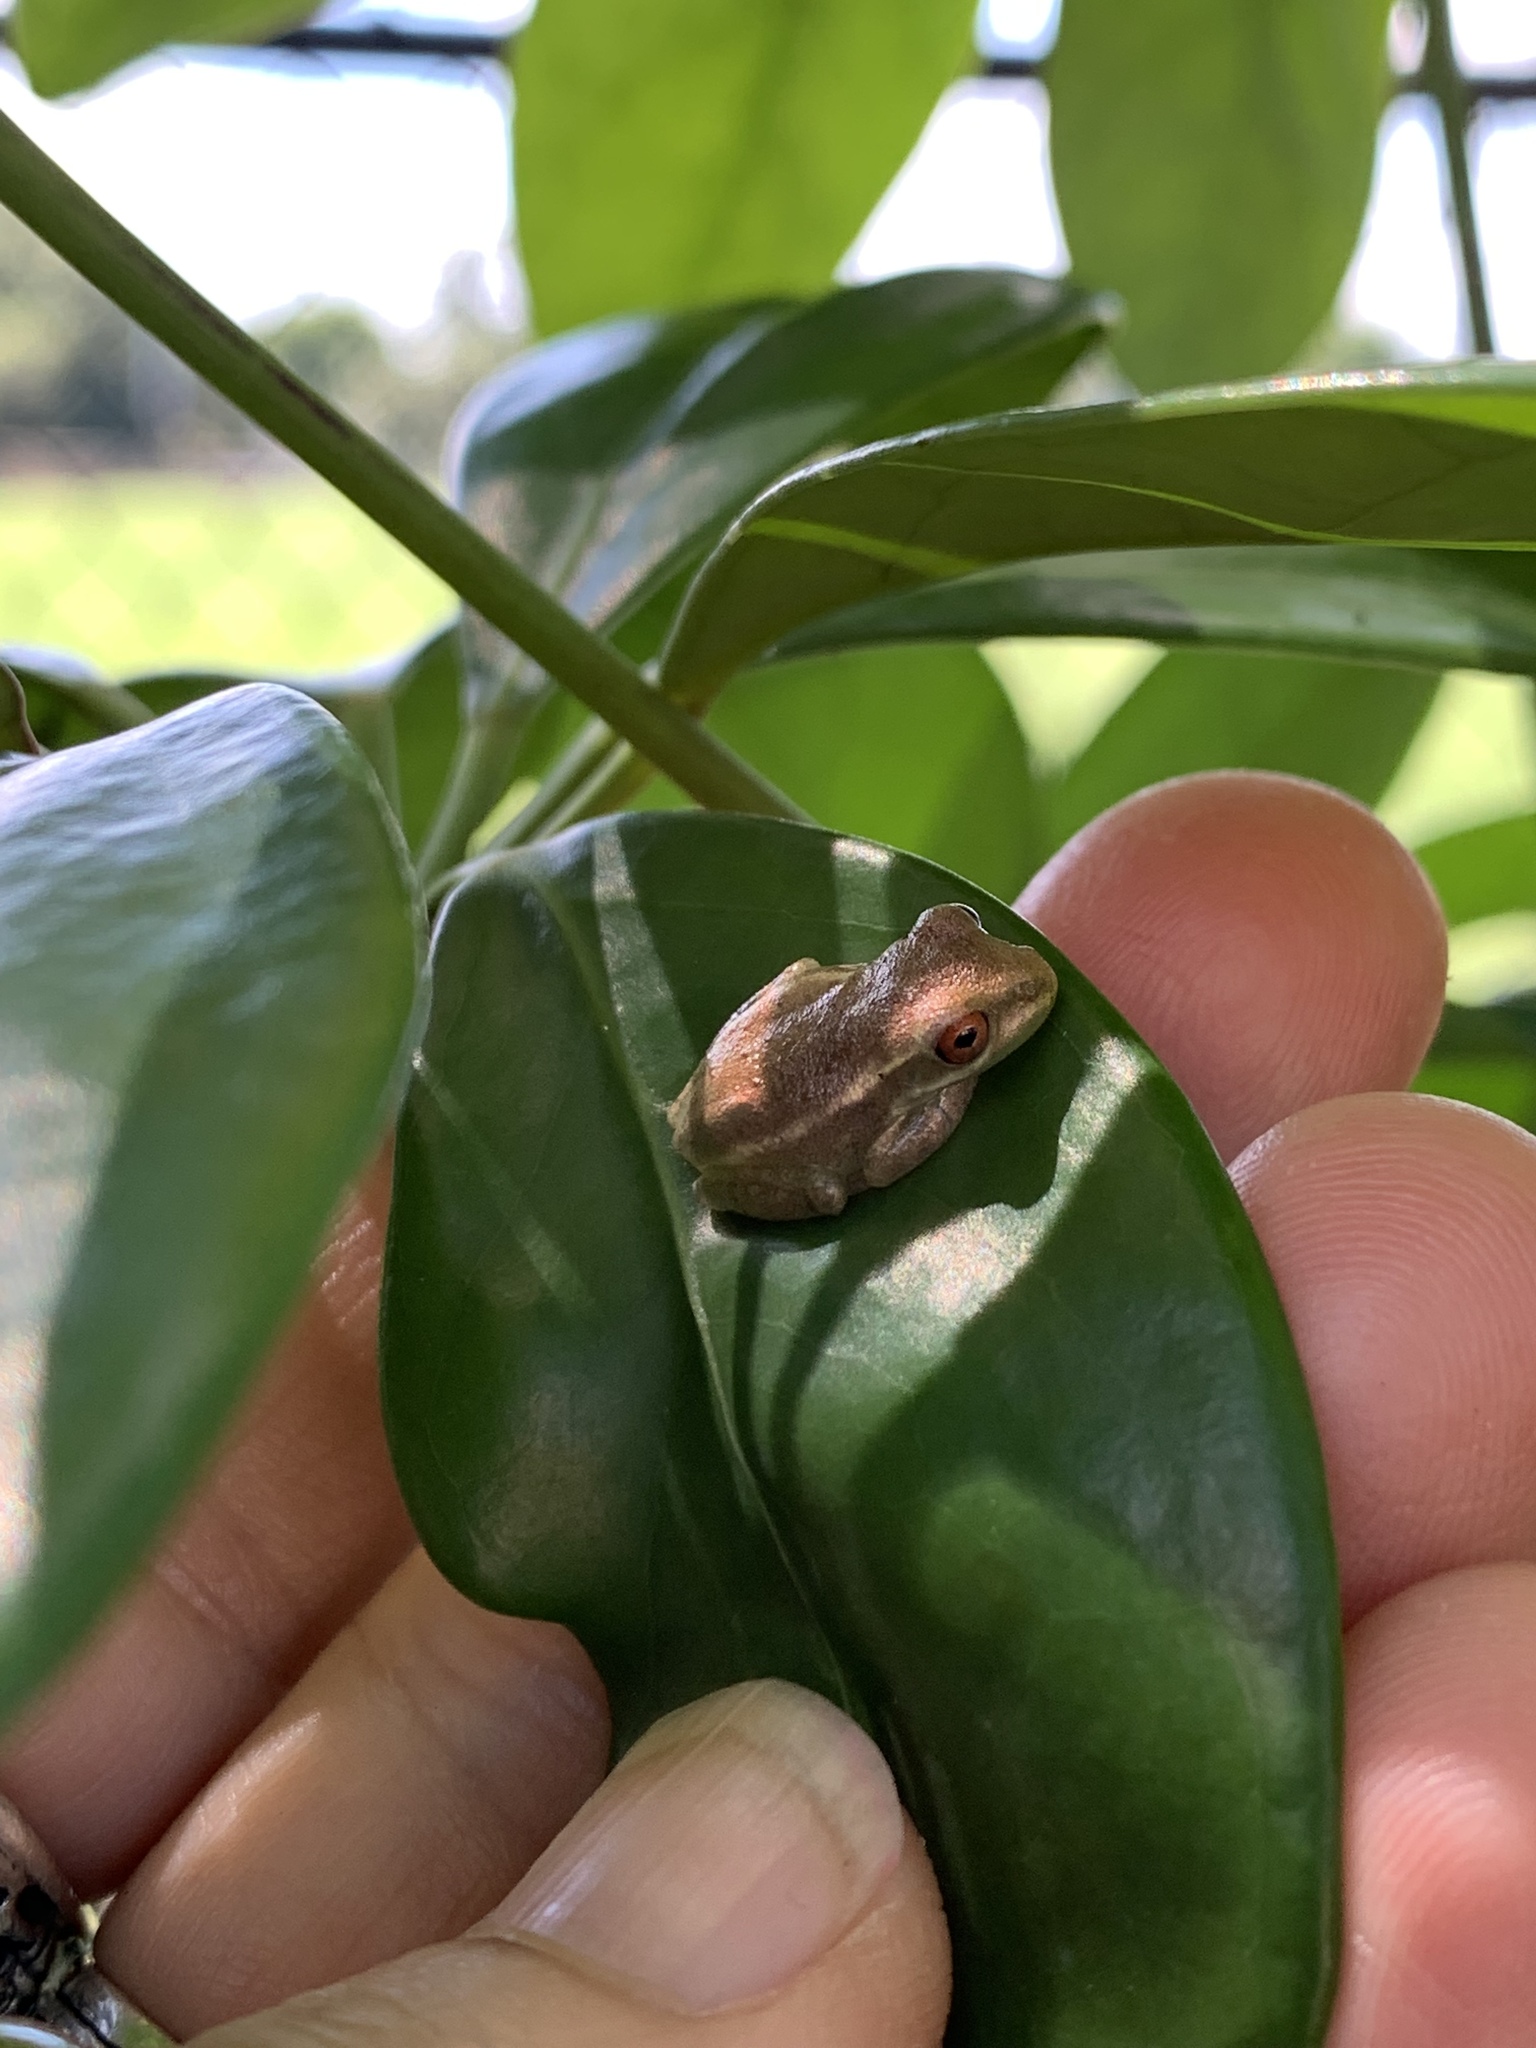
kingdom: Animalia
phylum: Chordata
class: Amphibia
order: Anura
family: Hylidae
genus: Osteopilus
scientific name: Osteopilus septentrionalis
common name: Cuban treefrog
